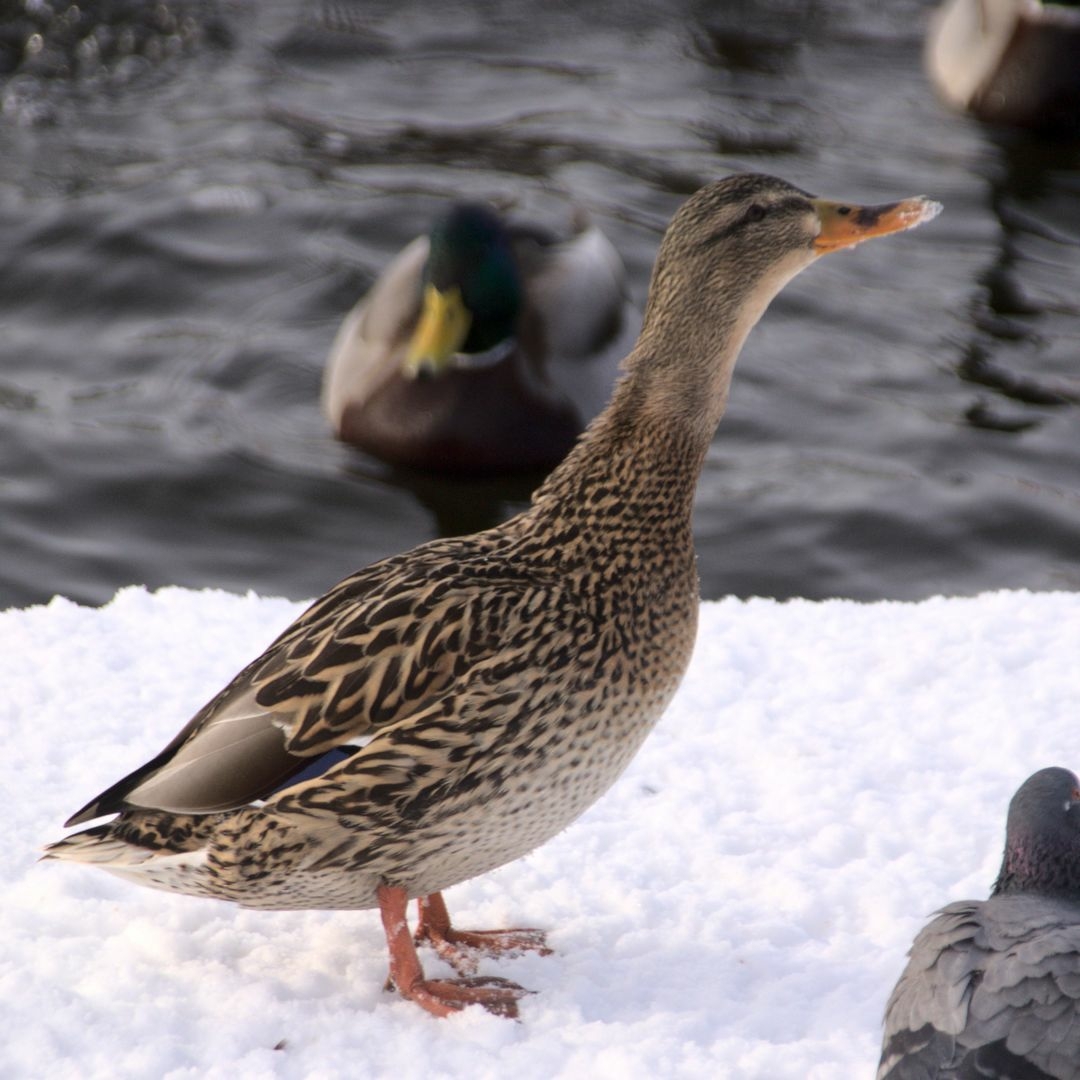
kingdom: Animalia
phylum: Chordata
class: Aves
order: Anseriformes
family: Anatidae
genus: Anas
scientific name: Anas platyrhynchos
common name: Mallard
